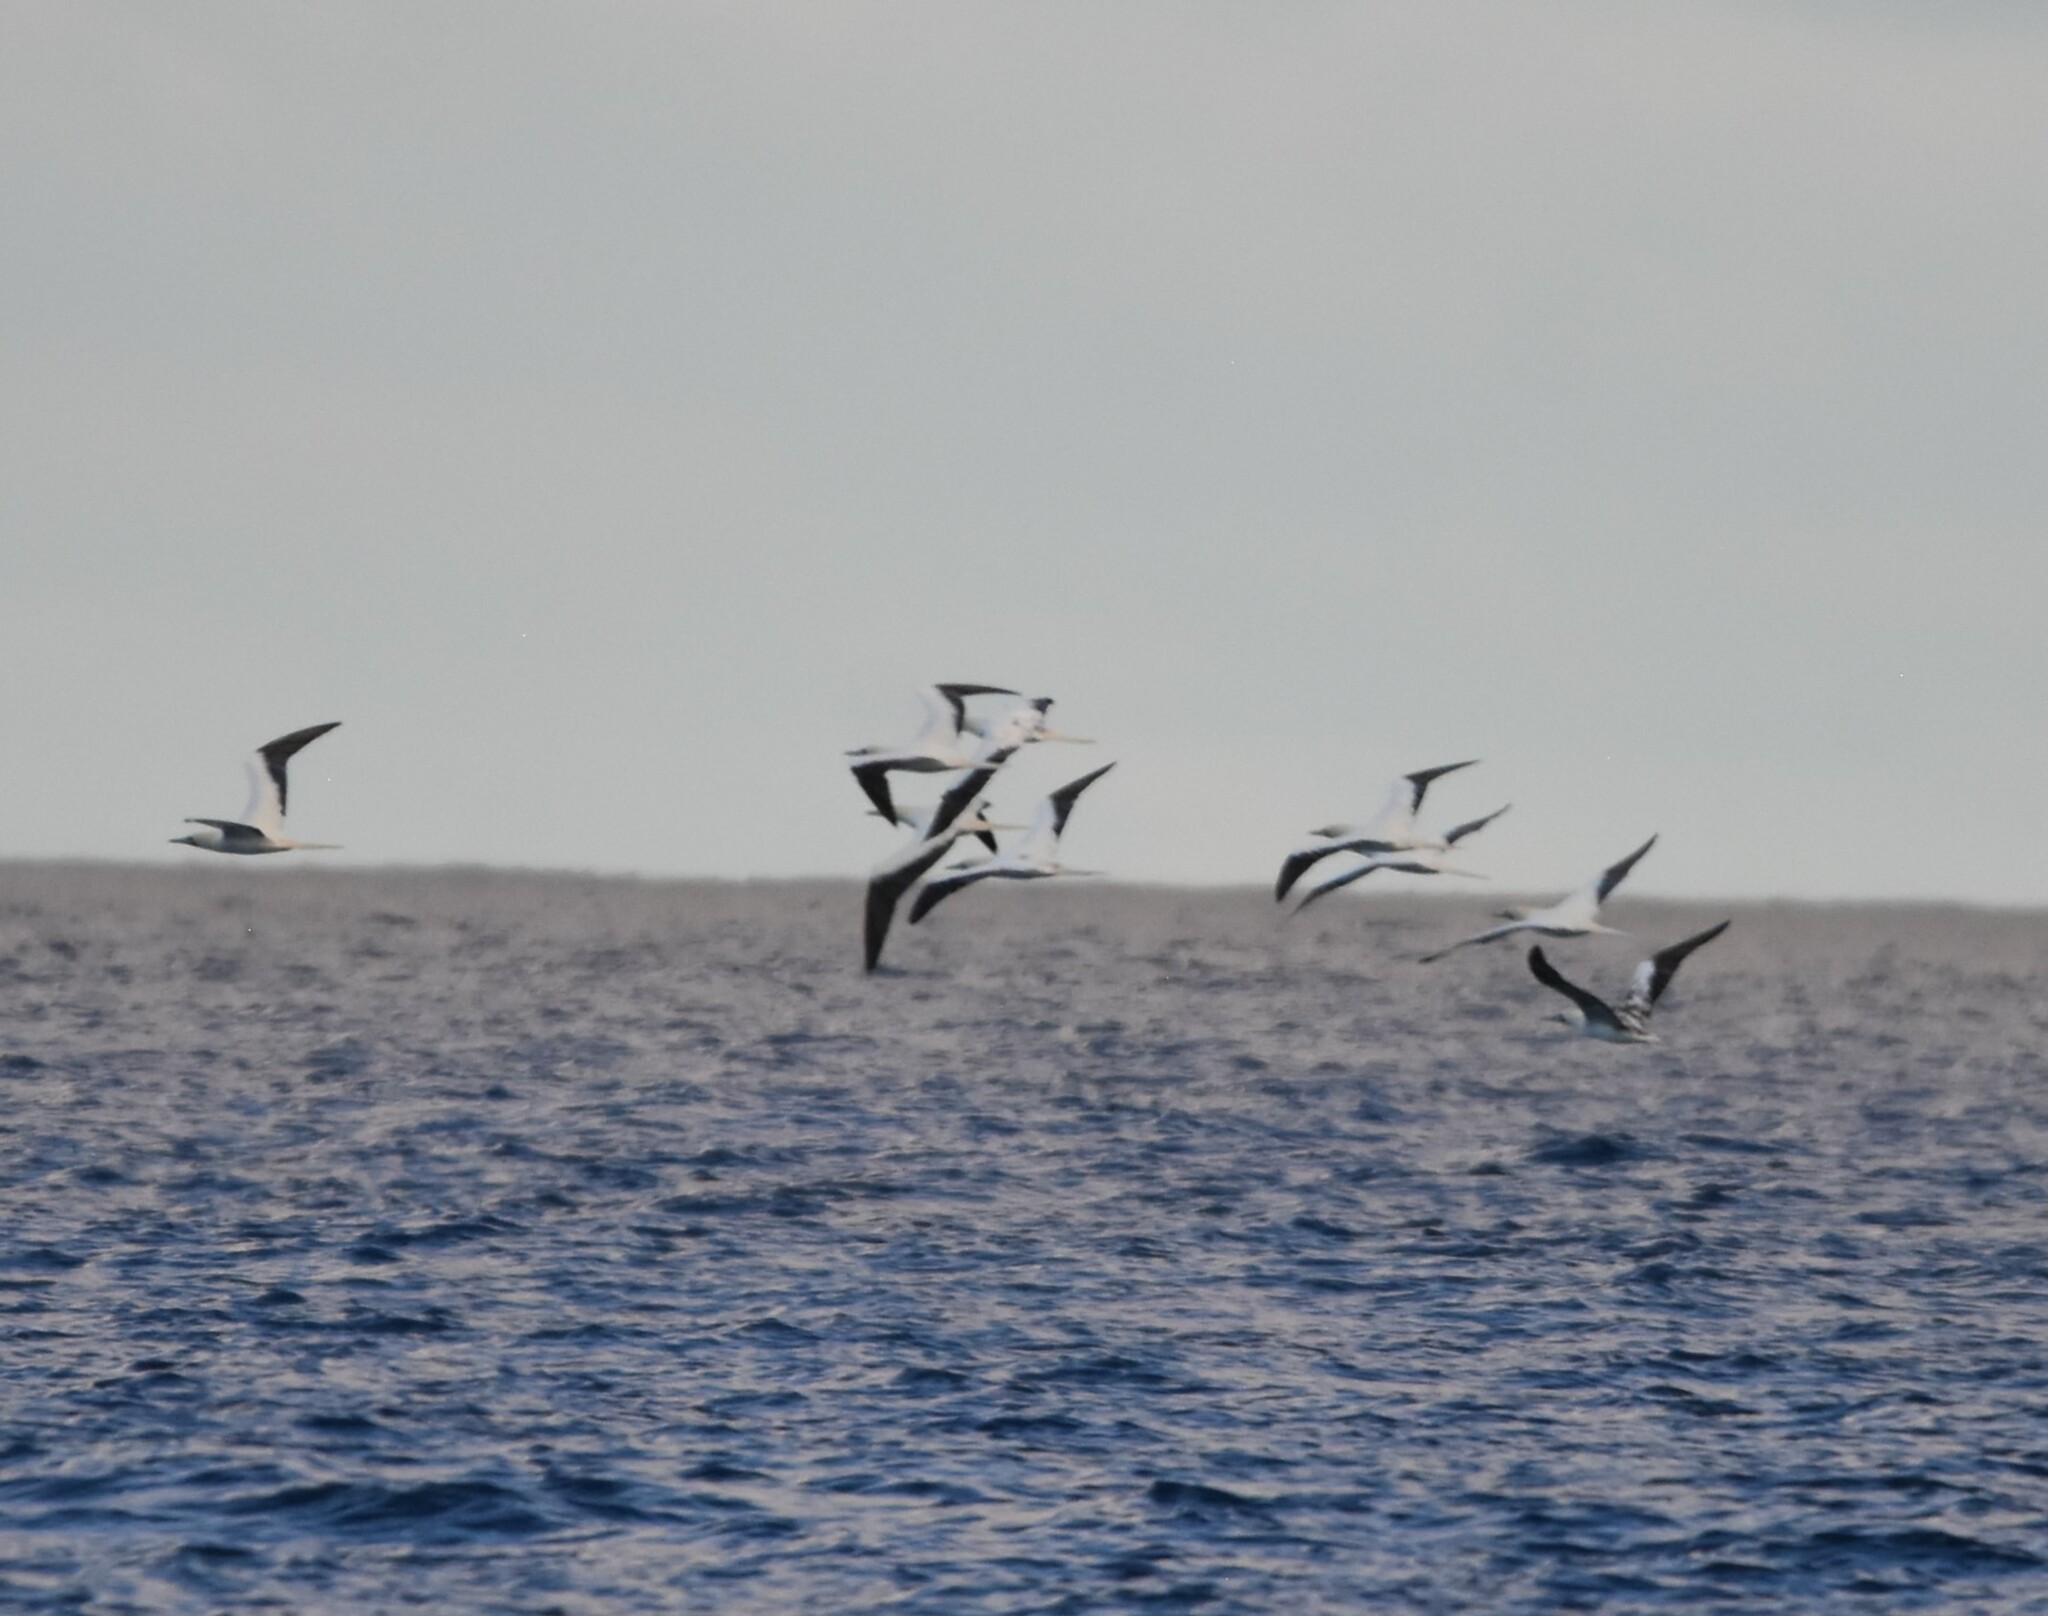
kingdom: Animalia
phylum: Chordata
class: Aves
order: Suliformes
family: Sulidae
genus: Sula
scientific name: Sula sula
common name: Red-footed booby
